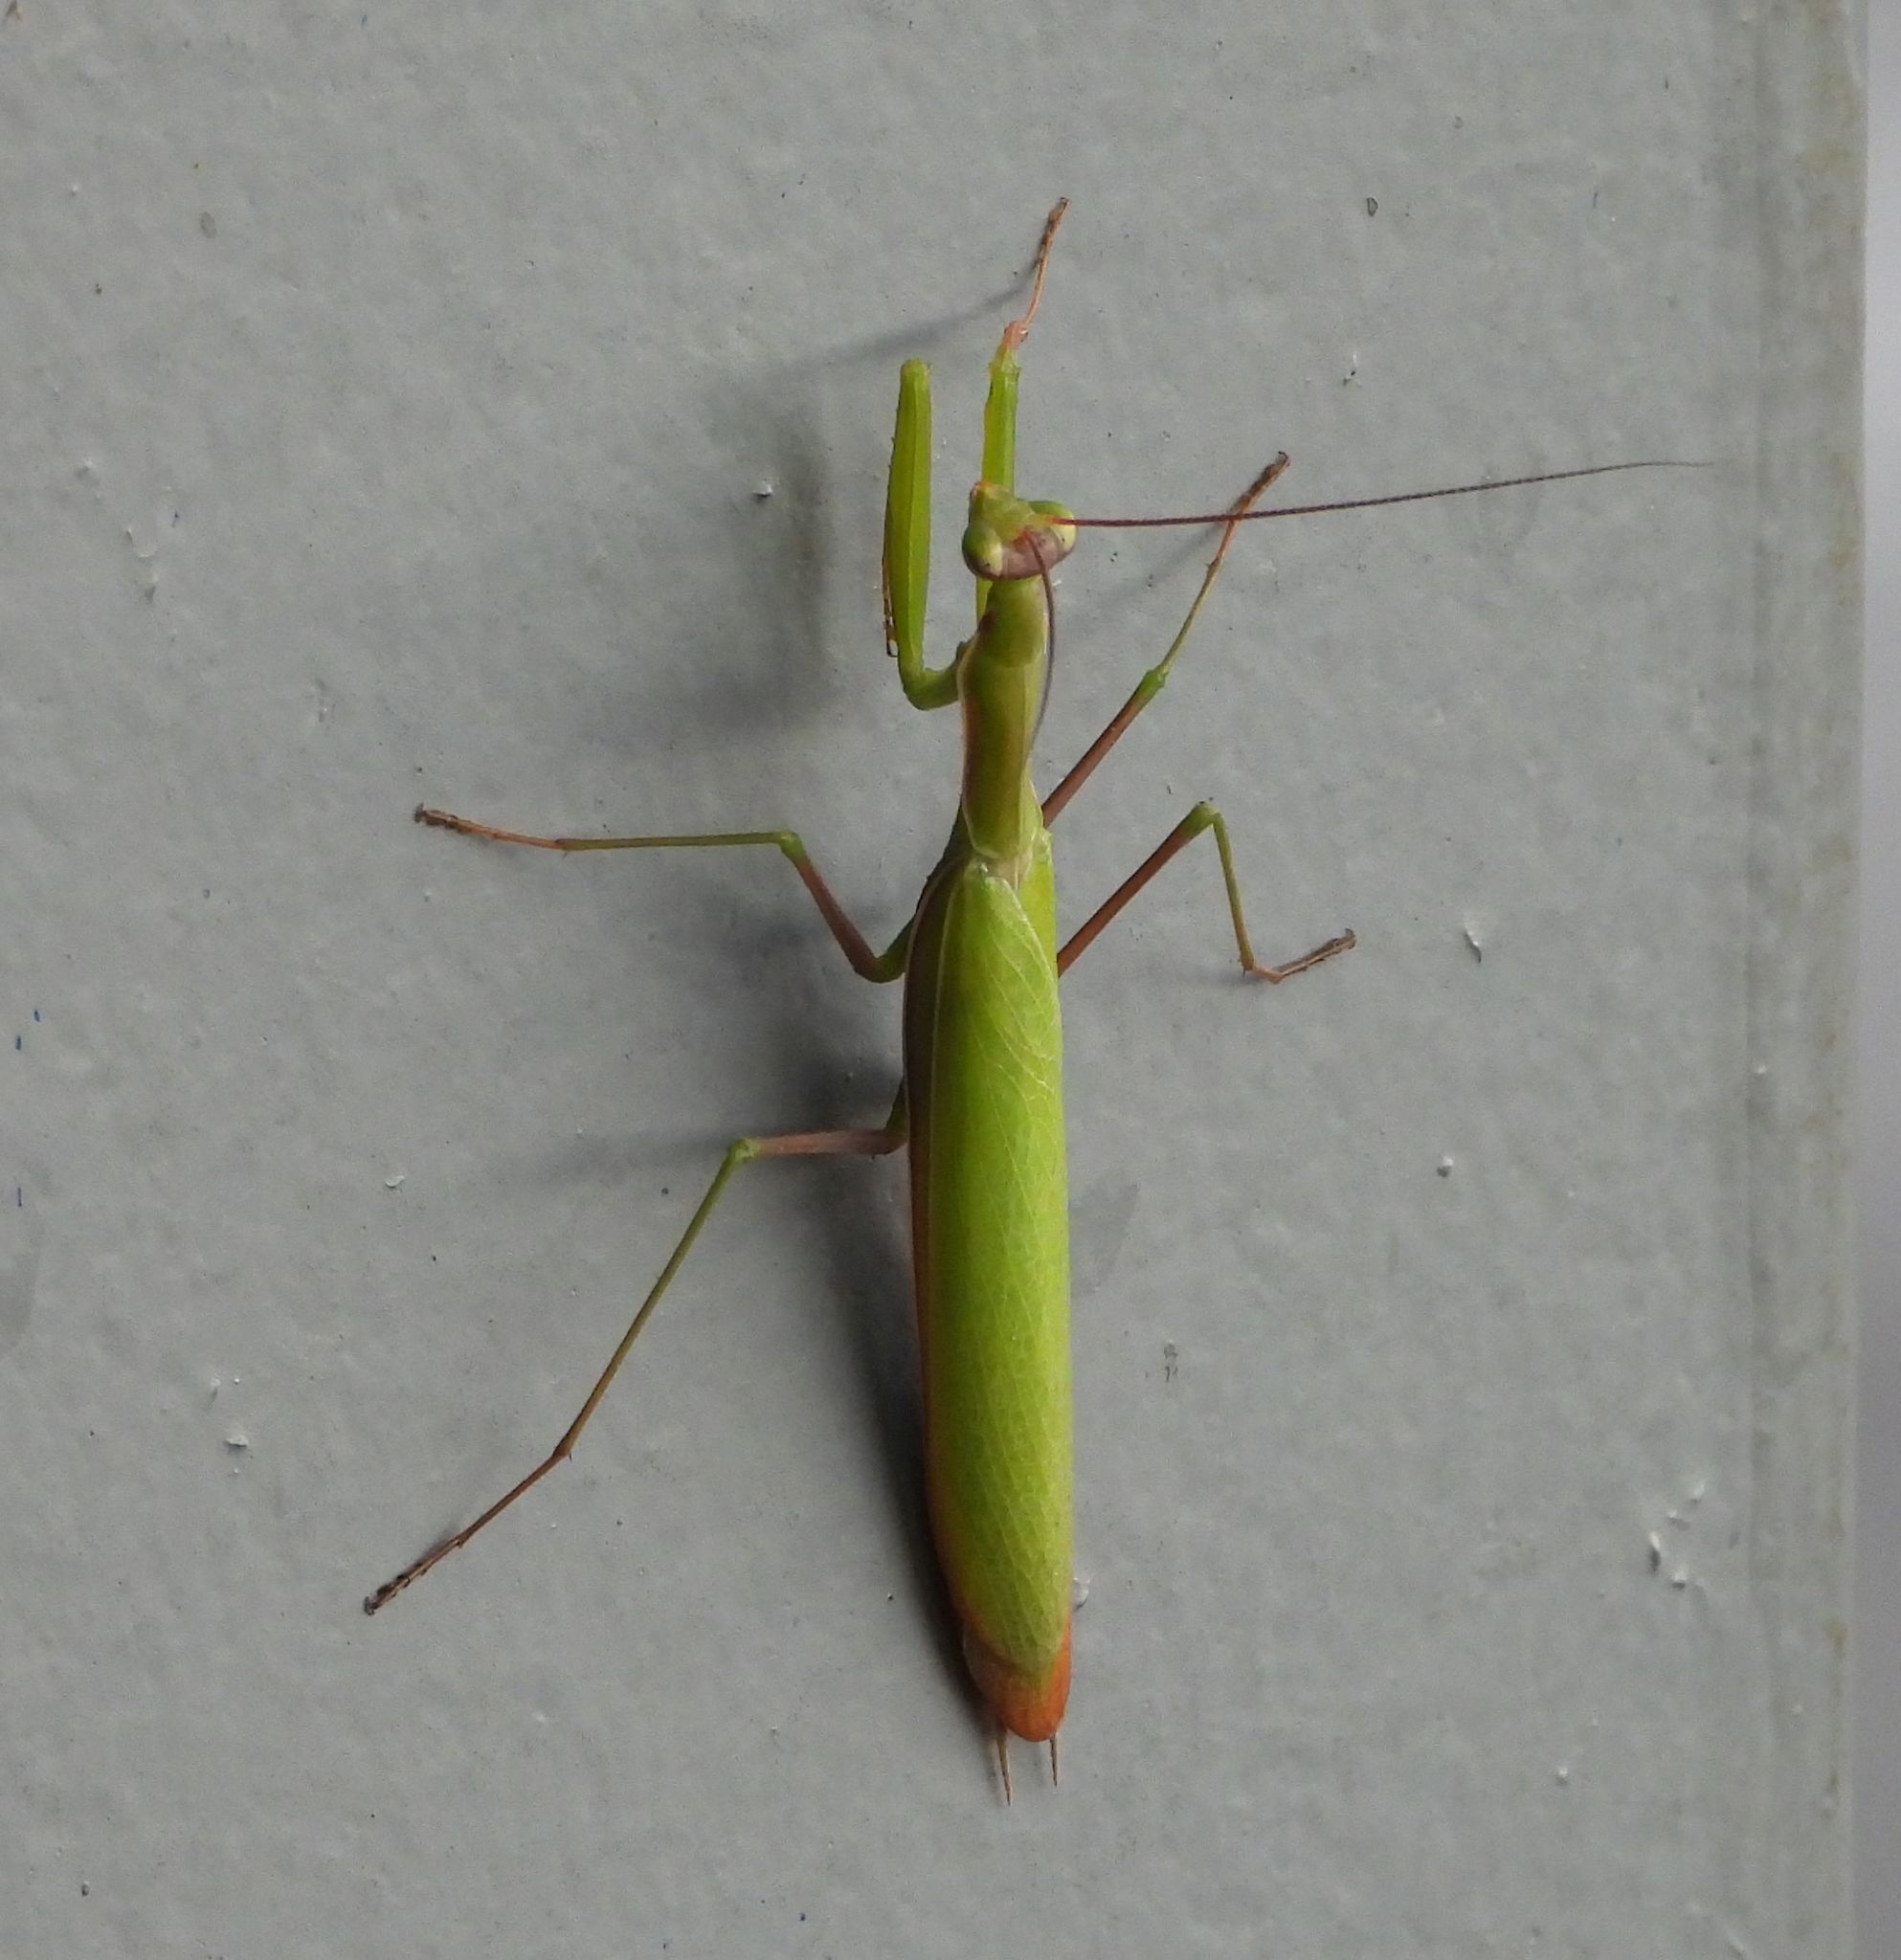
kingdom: Animalia
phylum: Arthropoda
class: Insecta
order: Mantodea
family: Mantidae
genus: Mantis
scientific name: Mantis religiosa
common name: Praying mantis
